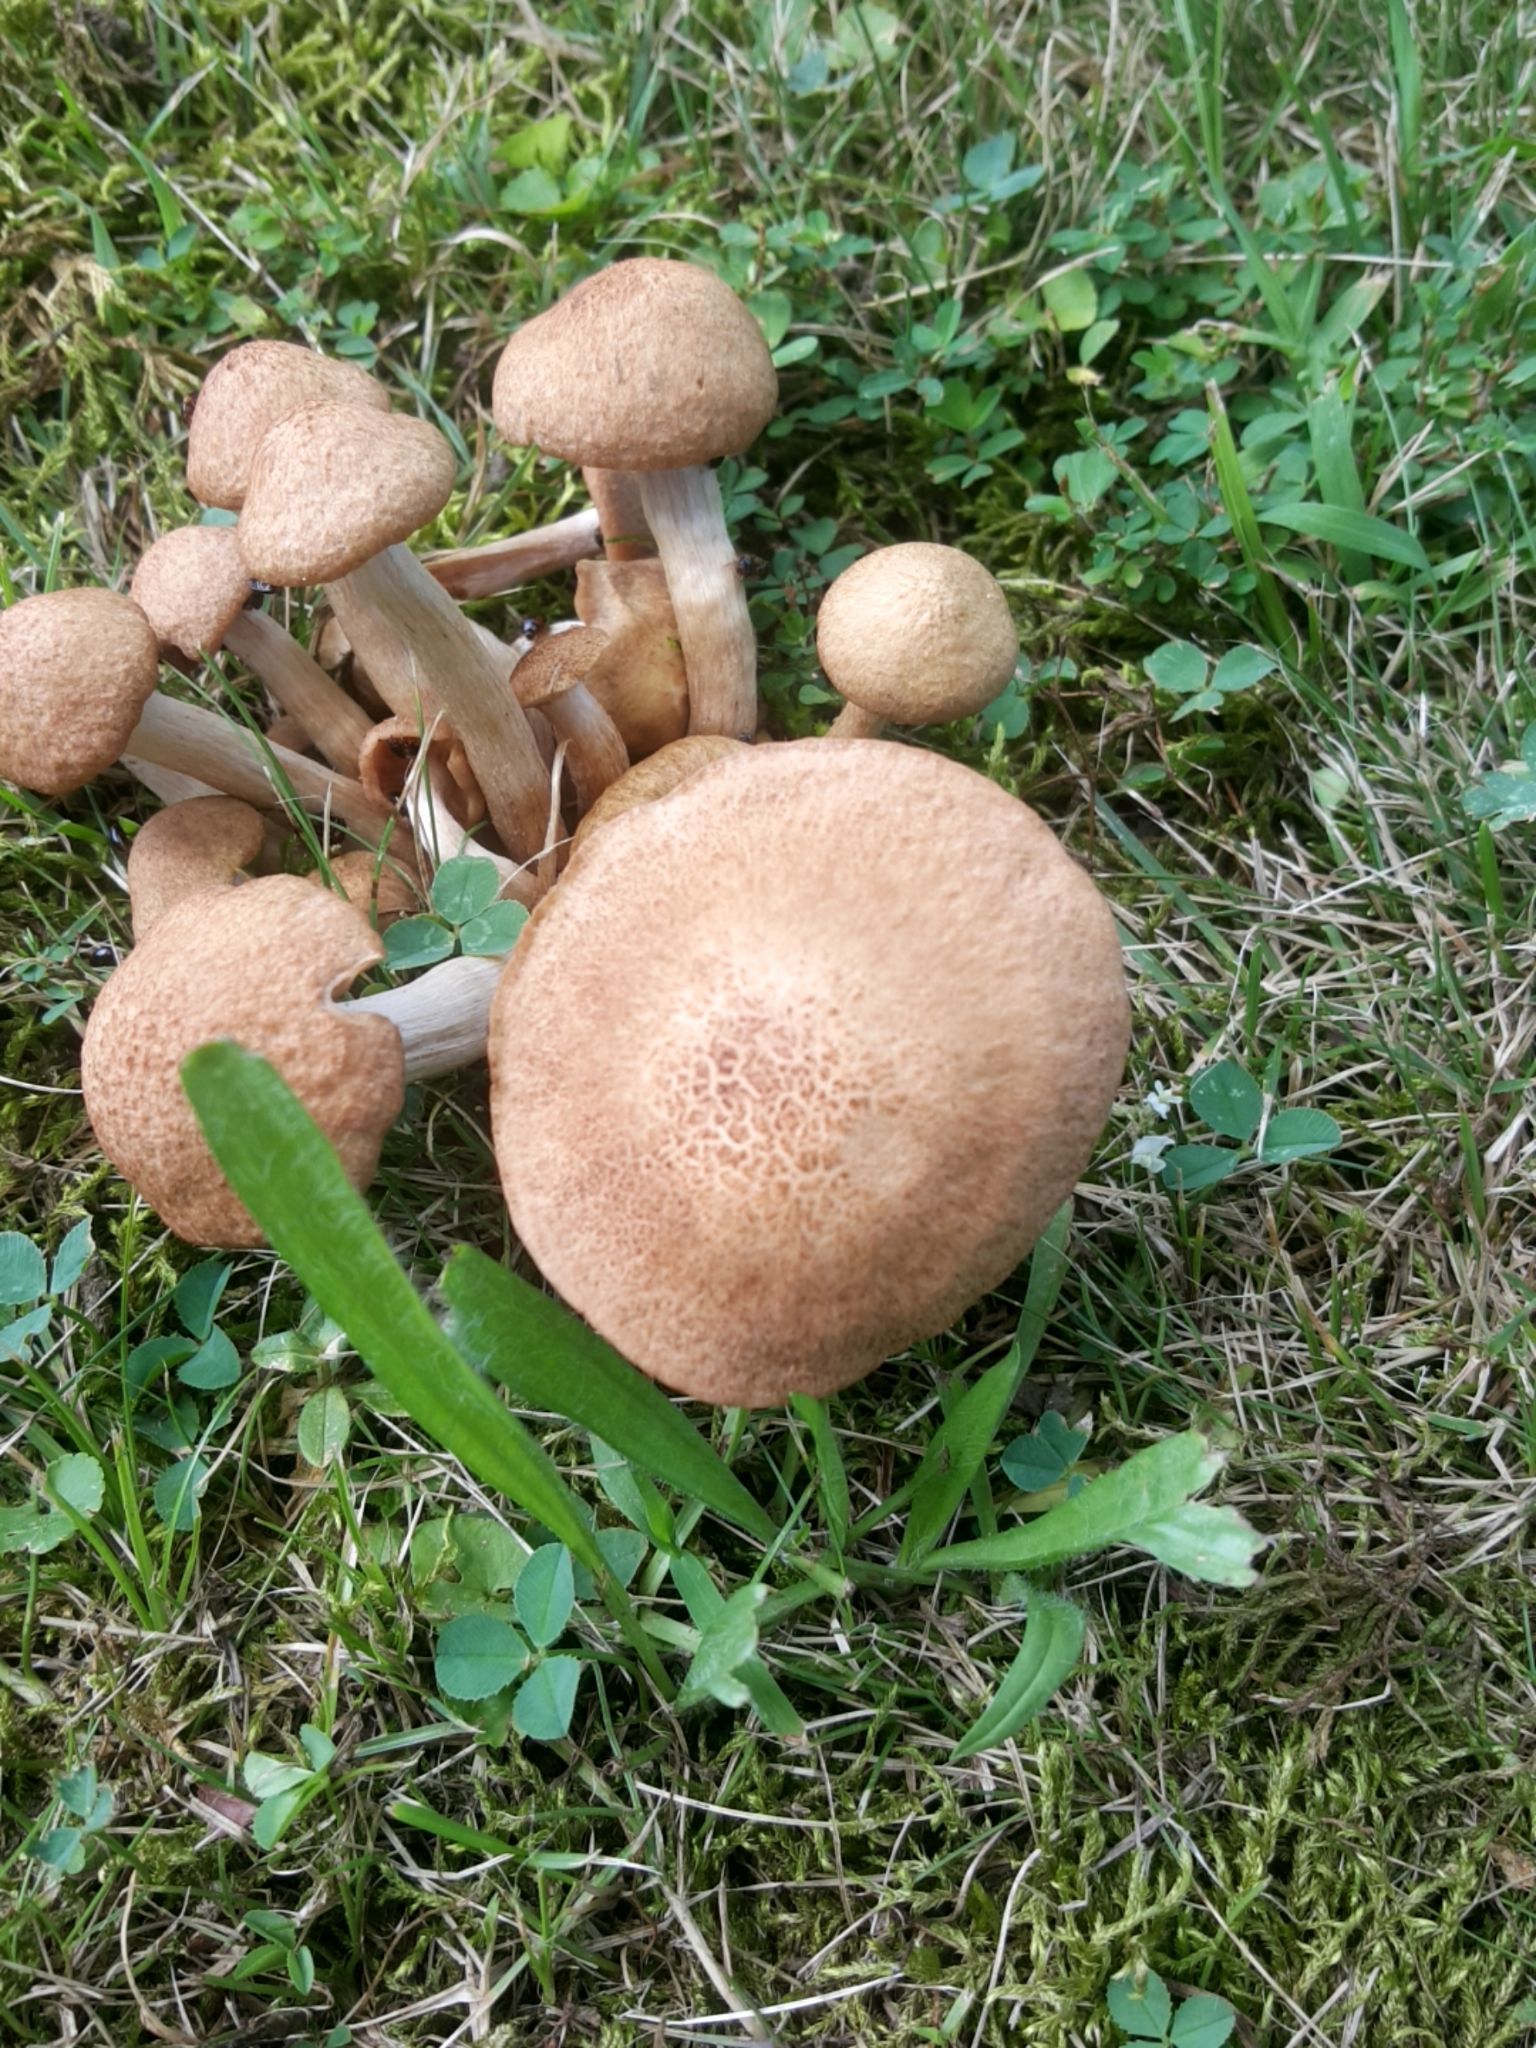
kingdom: Fungi
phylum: Basidiomycota
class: Agaricomycetes
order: Agaricales
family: Physalacriaceae
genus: Desarmillaria
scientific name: Desarmillaria caespitosa
